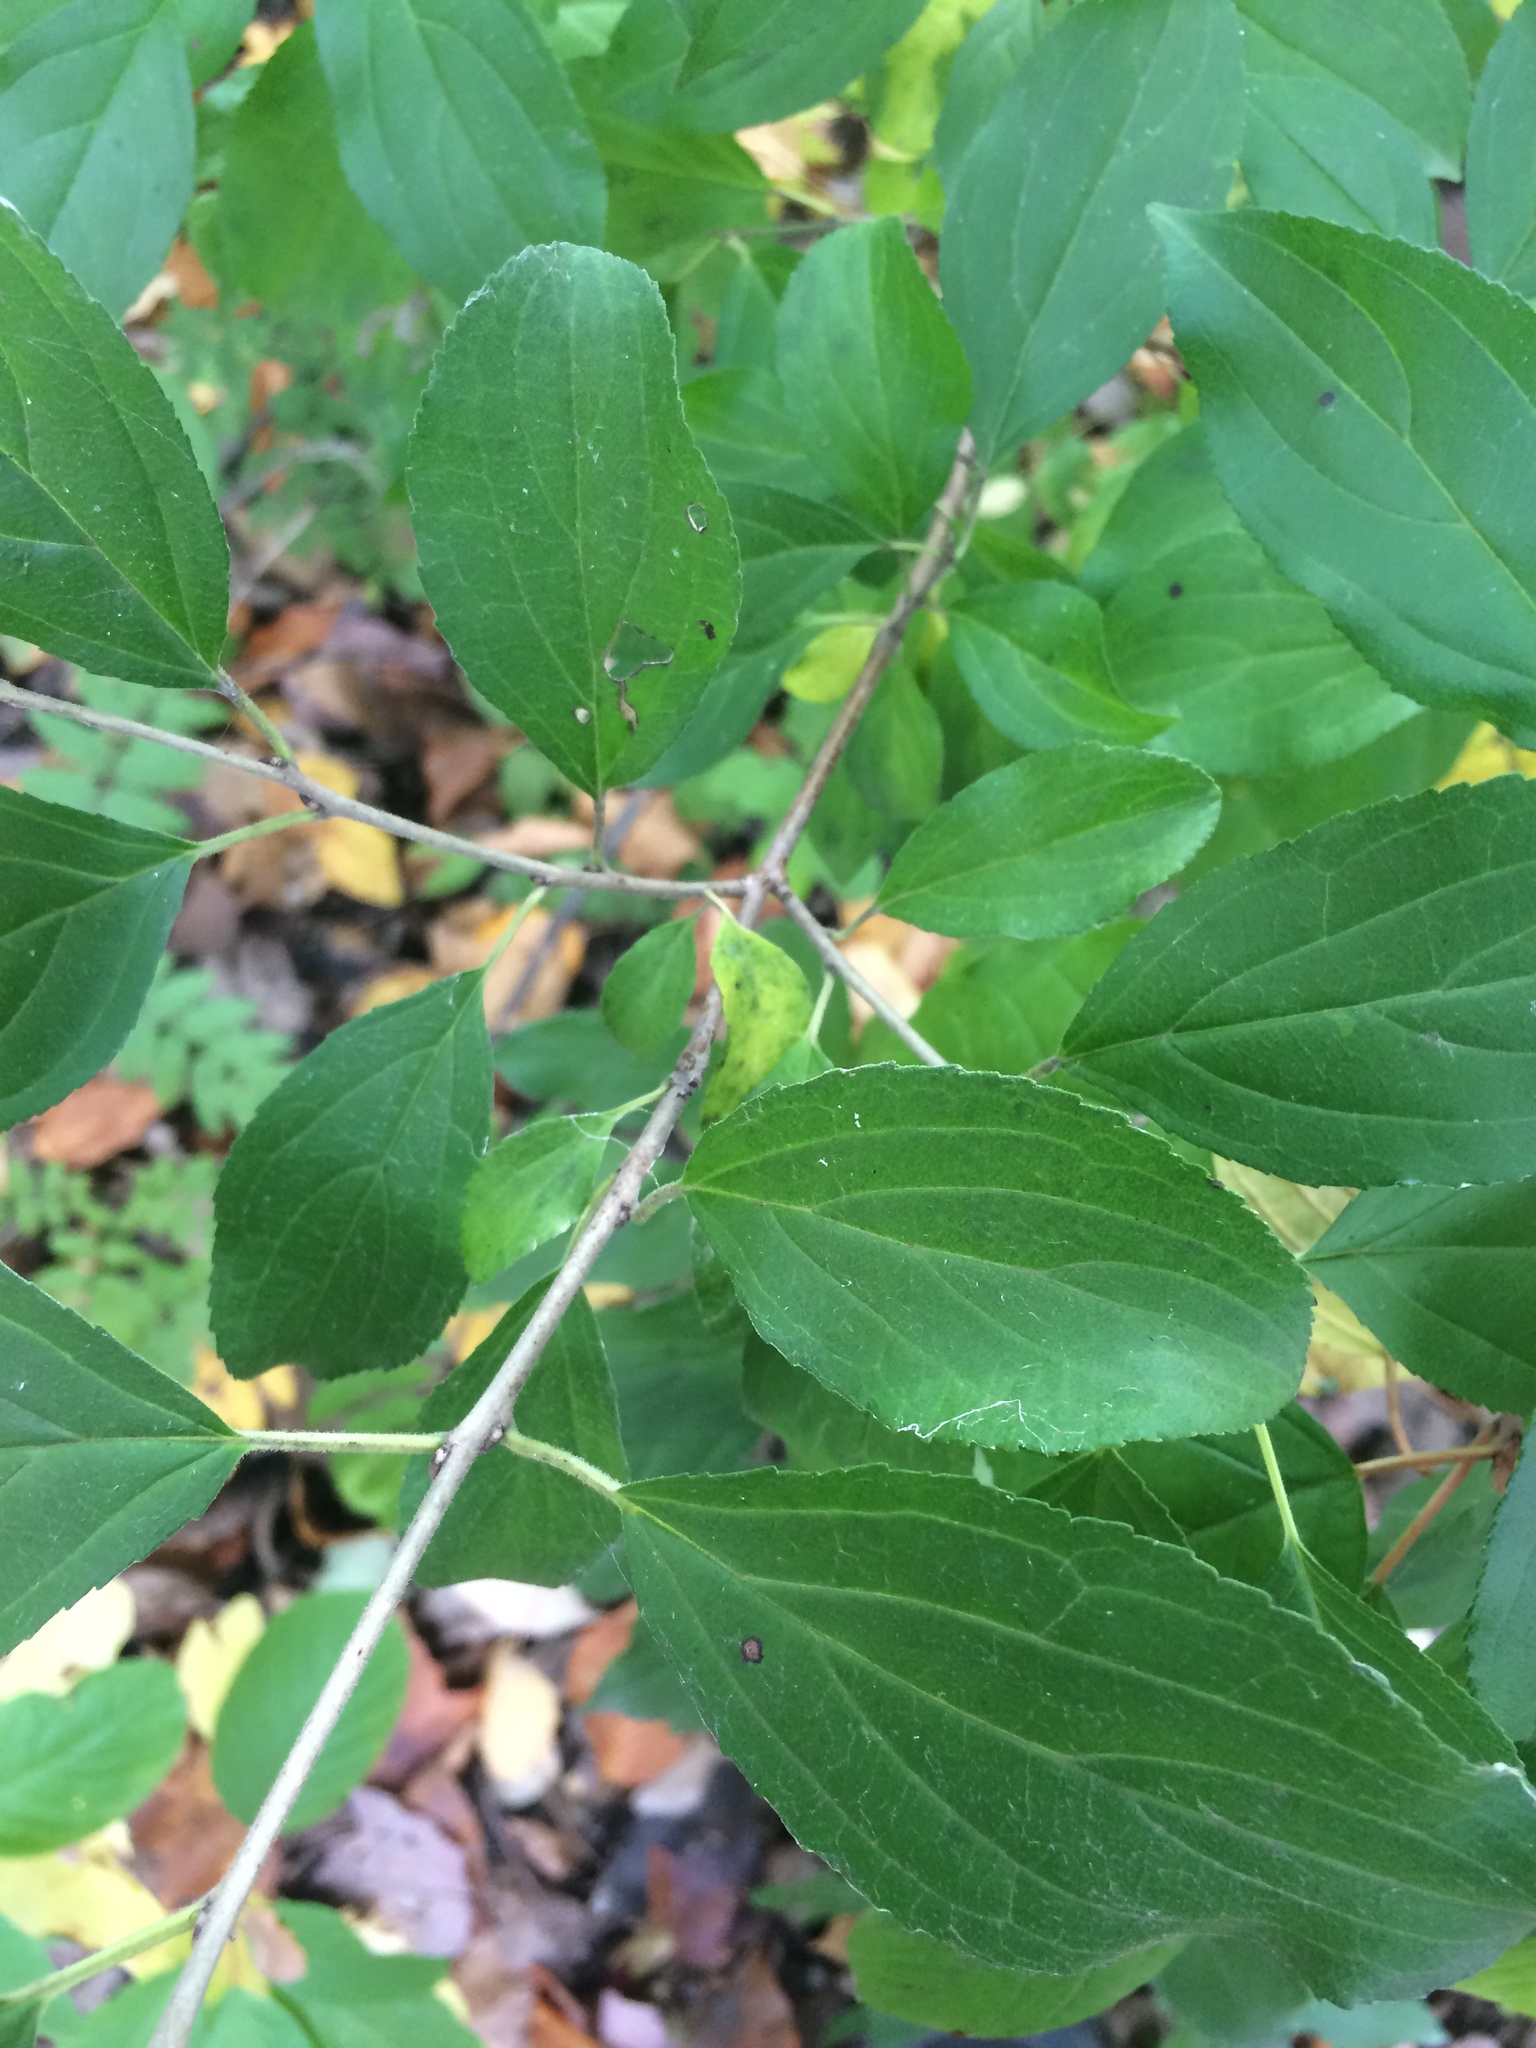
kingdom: Plantae
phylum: Tracheophyta
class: Magnoliopsida
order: Rosales
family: Rhamnaceae
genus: Rhamnus
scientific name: Rhamnus cathartica
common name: Common buckthorn
